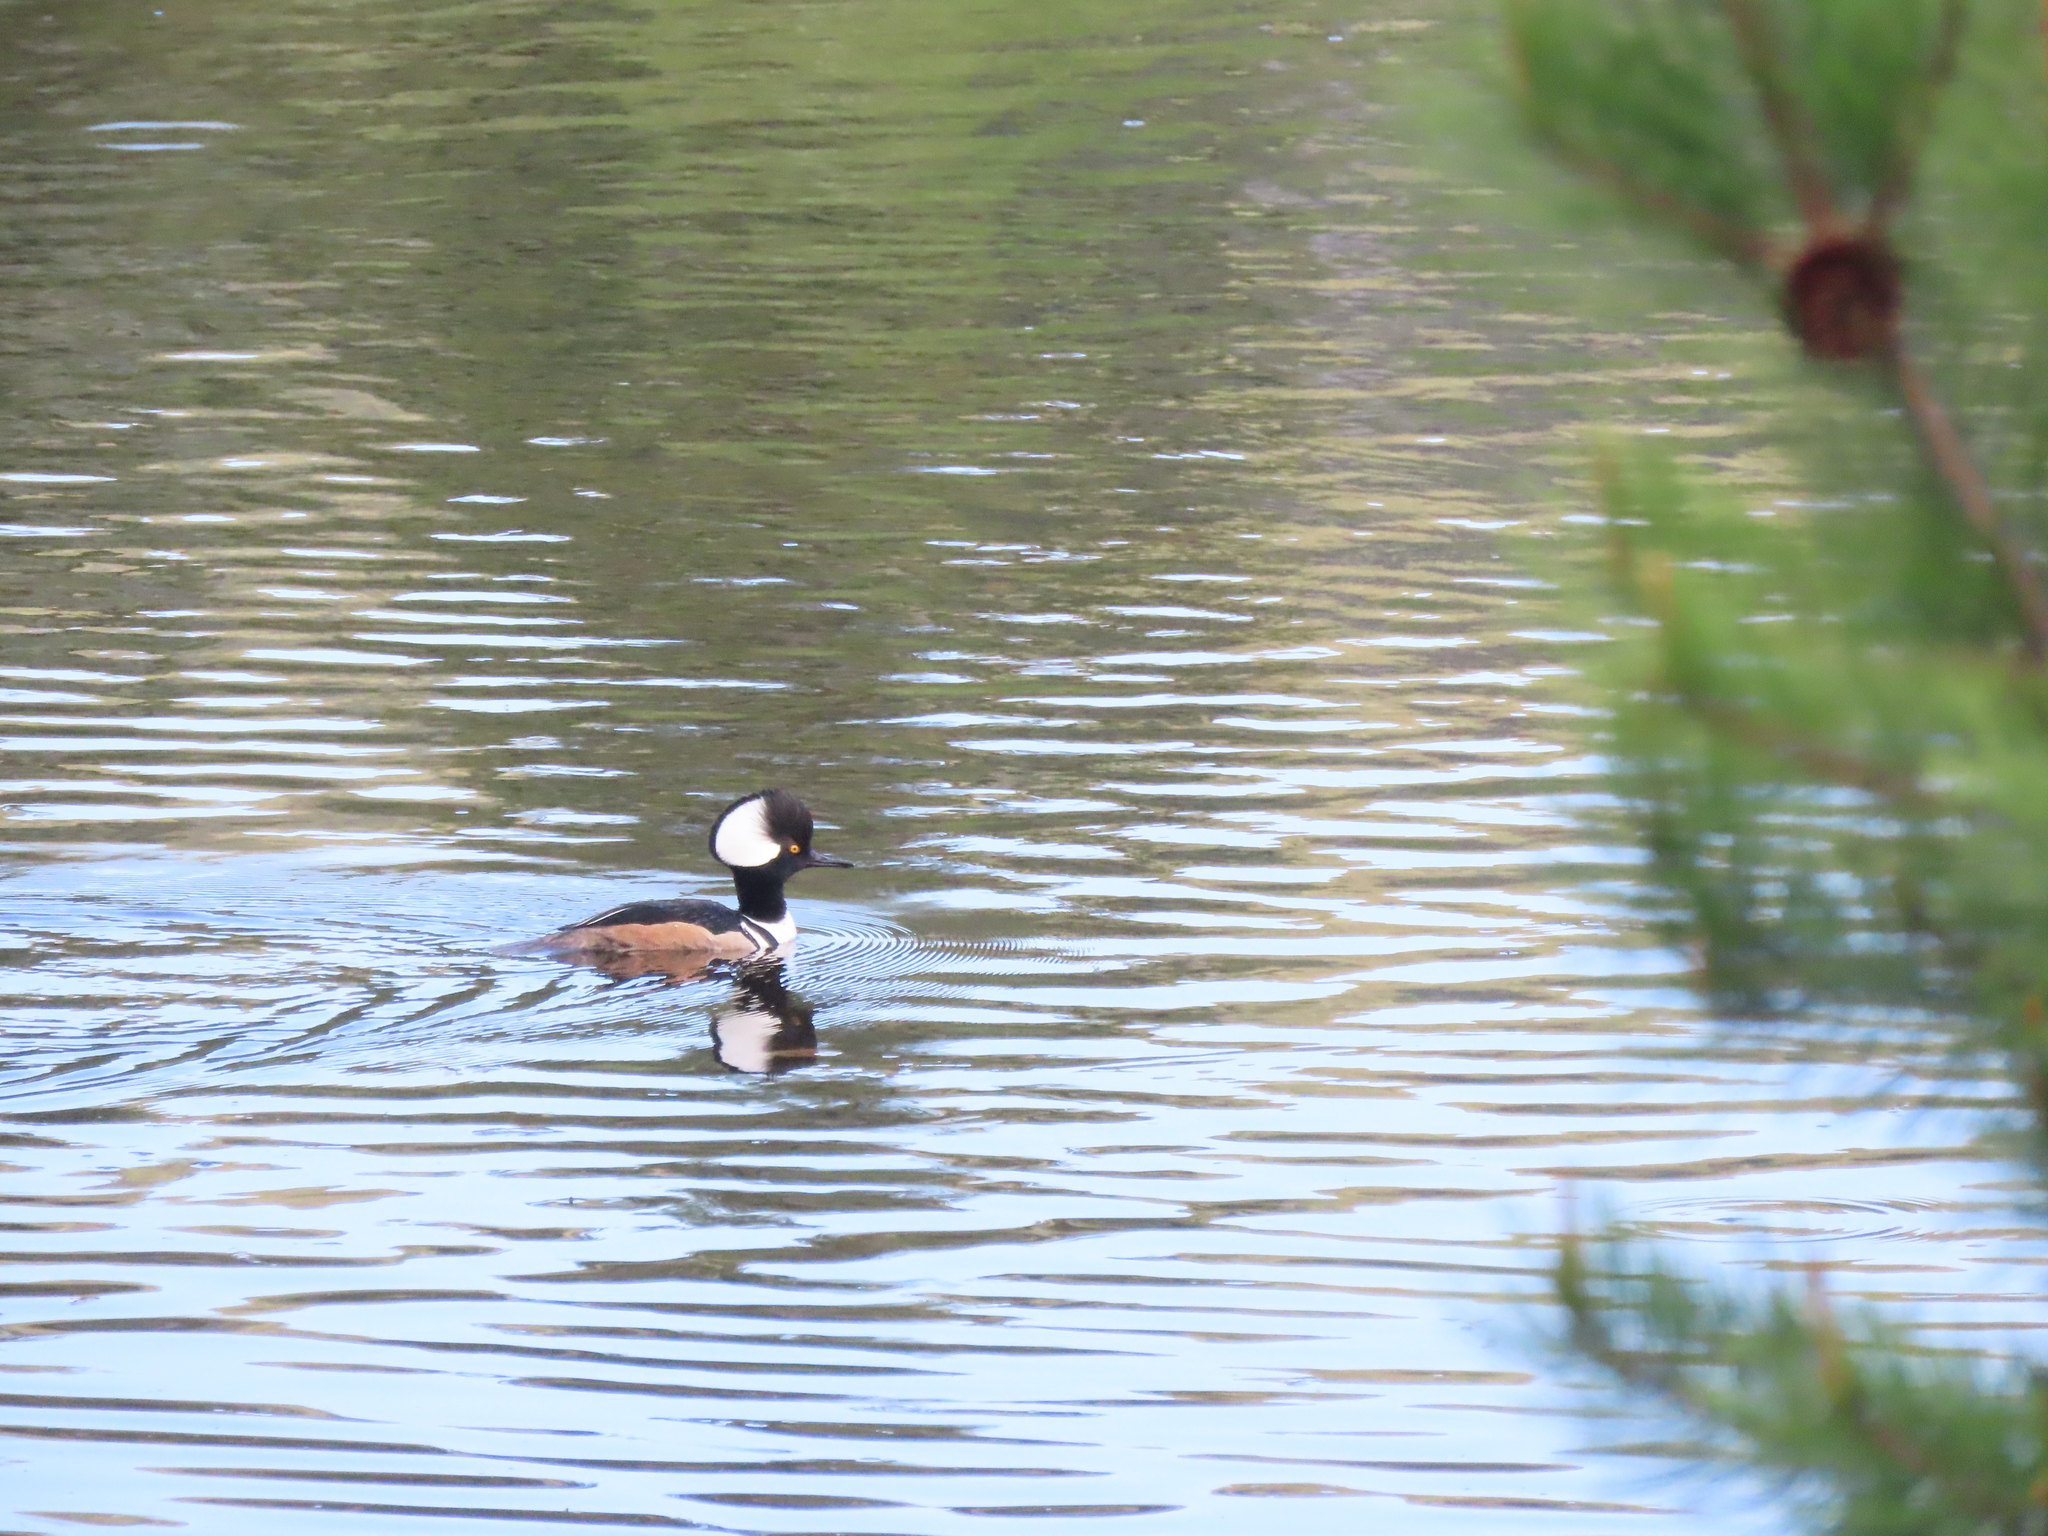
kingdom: Animalia
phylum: Chordata
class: Aves
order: Anseriformes
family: Anatidae
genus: Lophodytes
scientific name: Lophodytes cucullatus
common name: Hooded merganser
